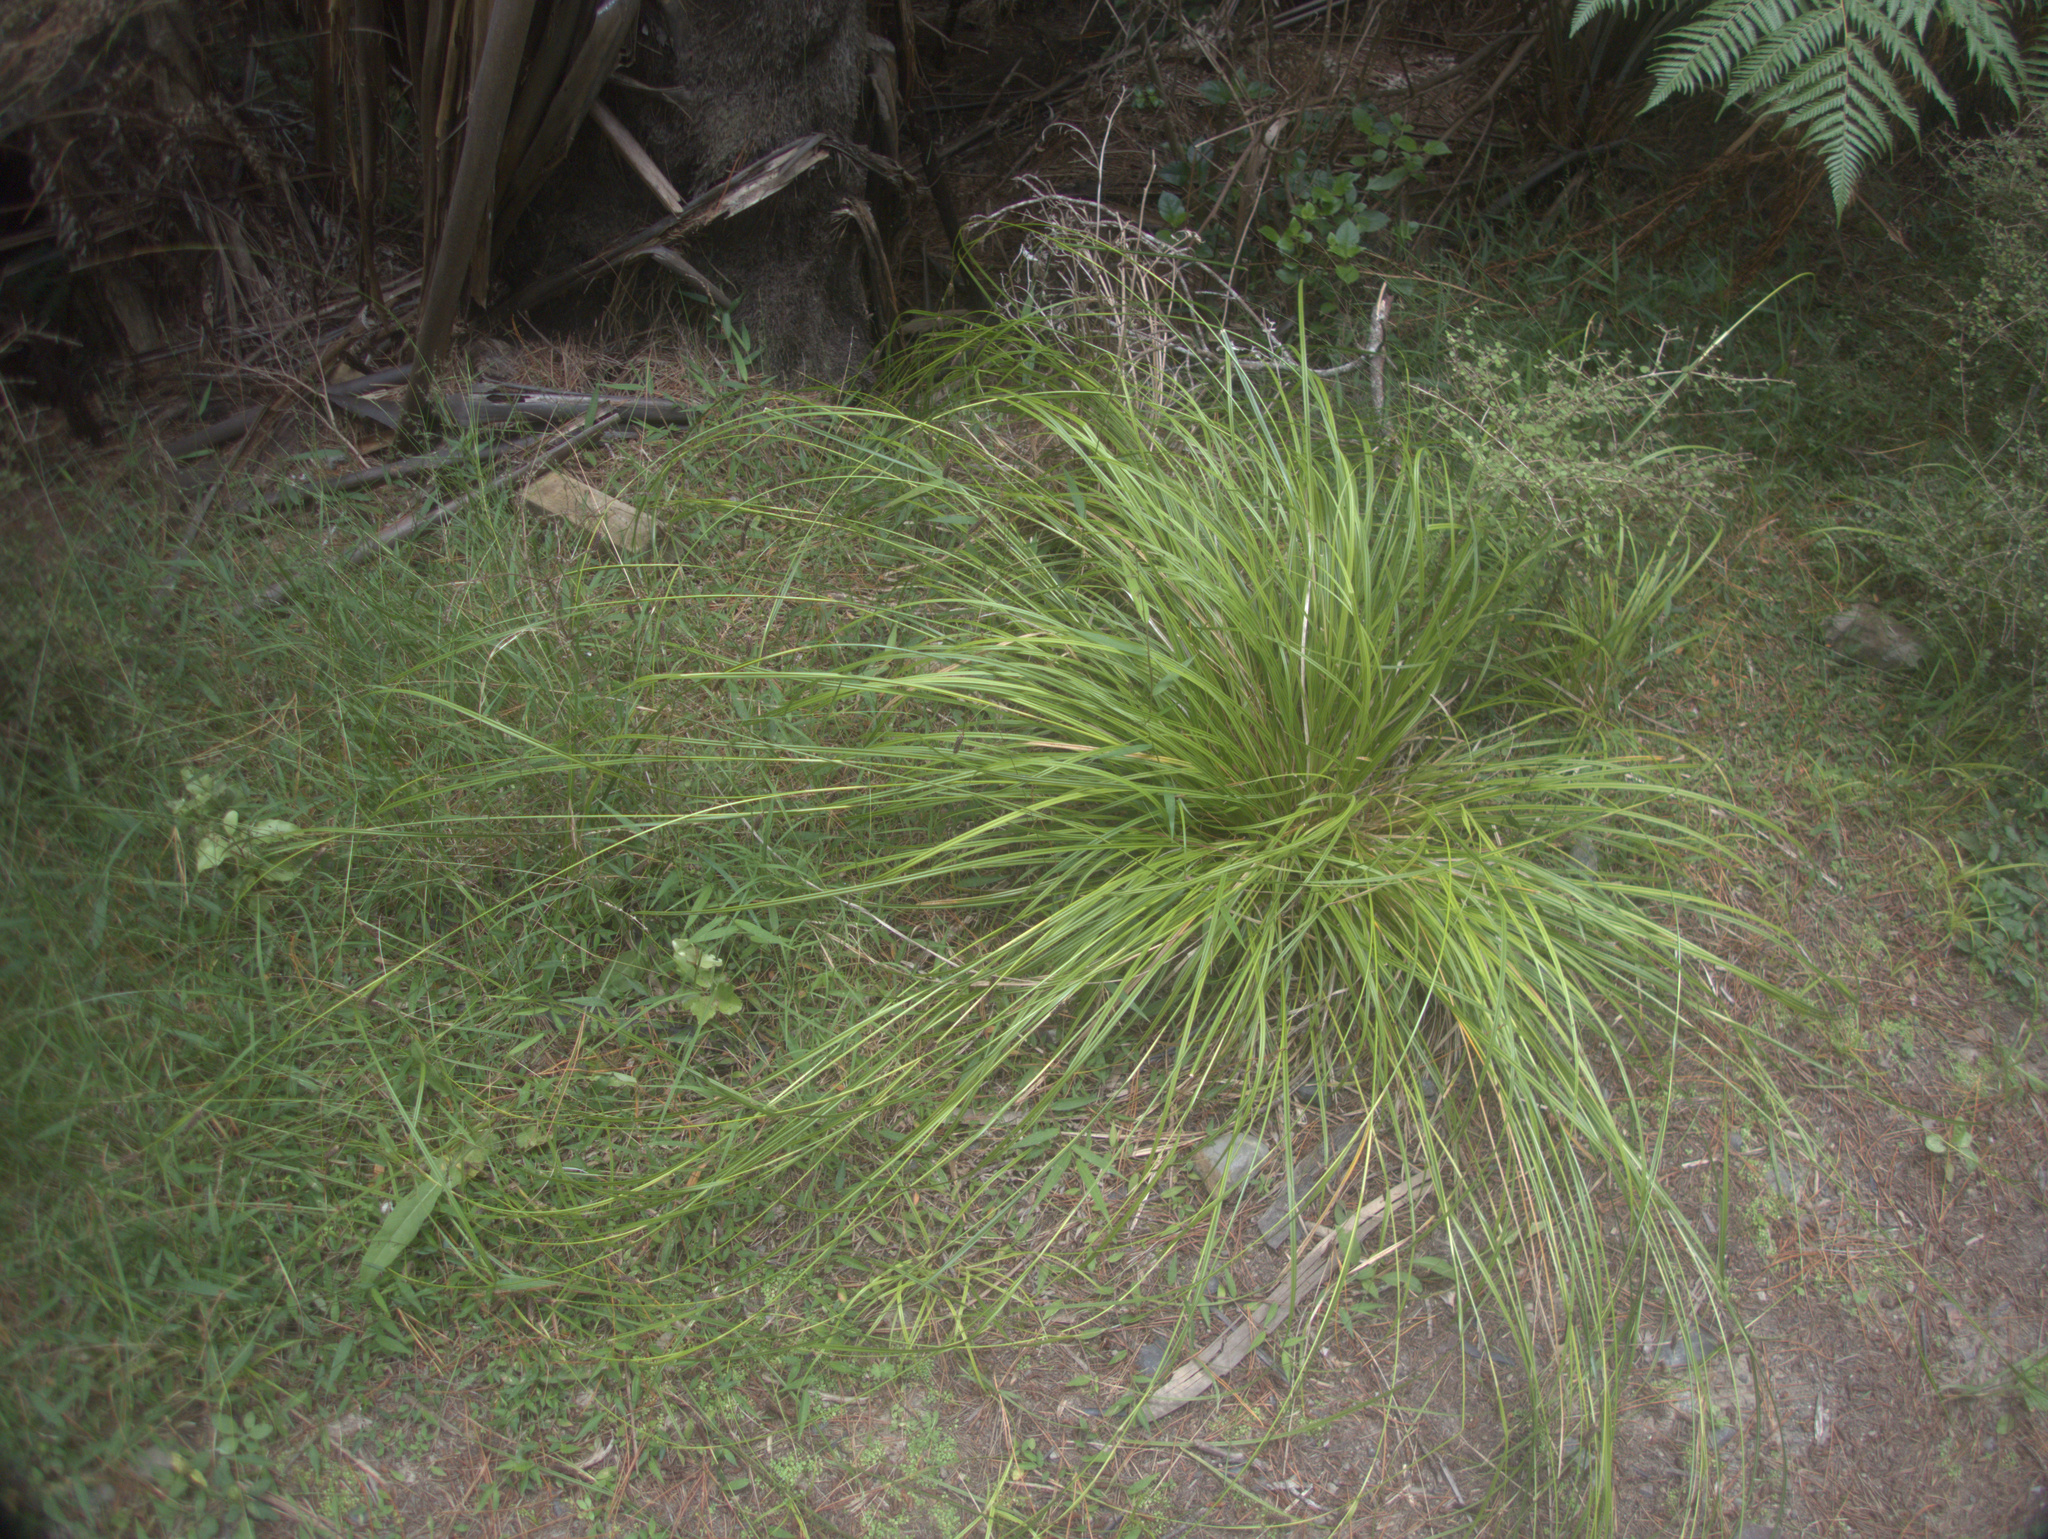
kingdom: Plantae
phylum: Tracheophyta
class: Liliopsida
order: Poales
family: Cyperaceae
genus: Carex
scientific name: Carex lambertiana
